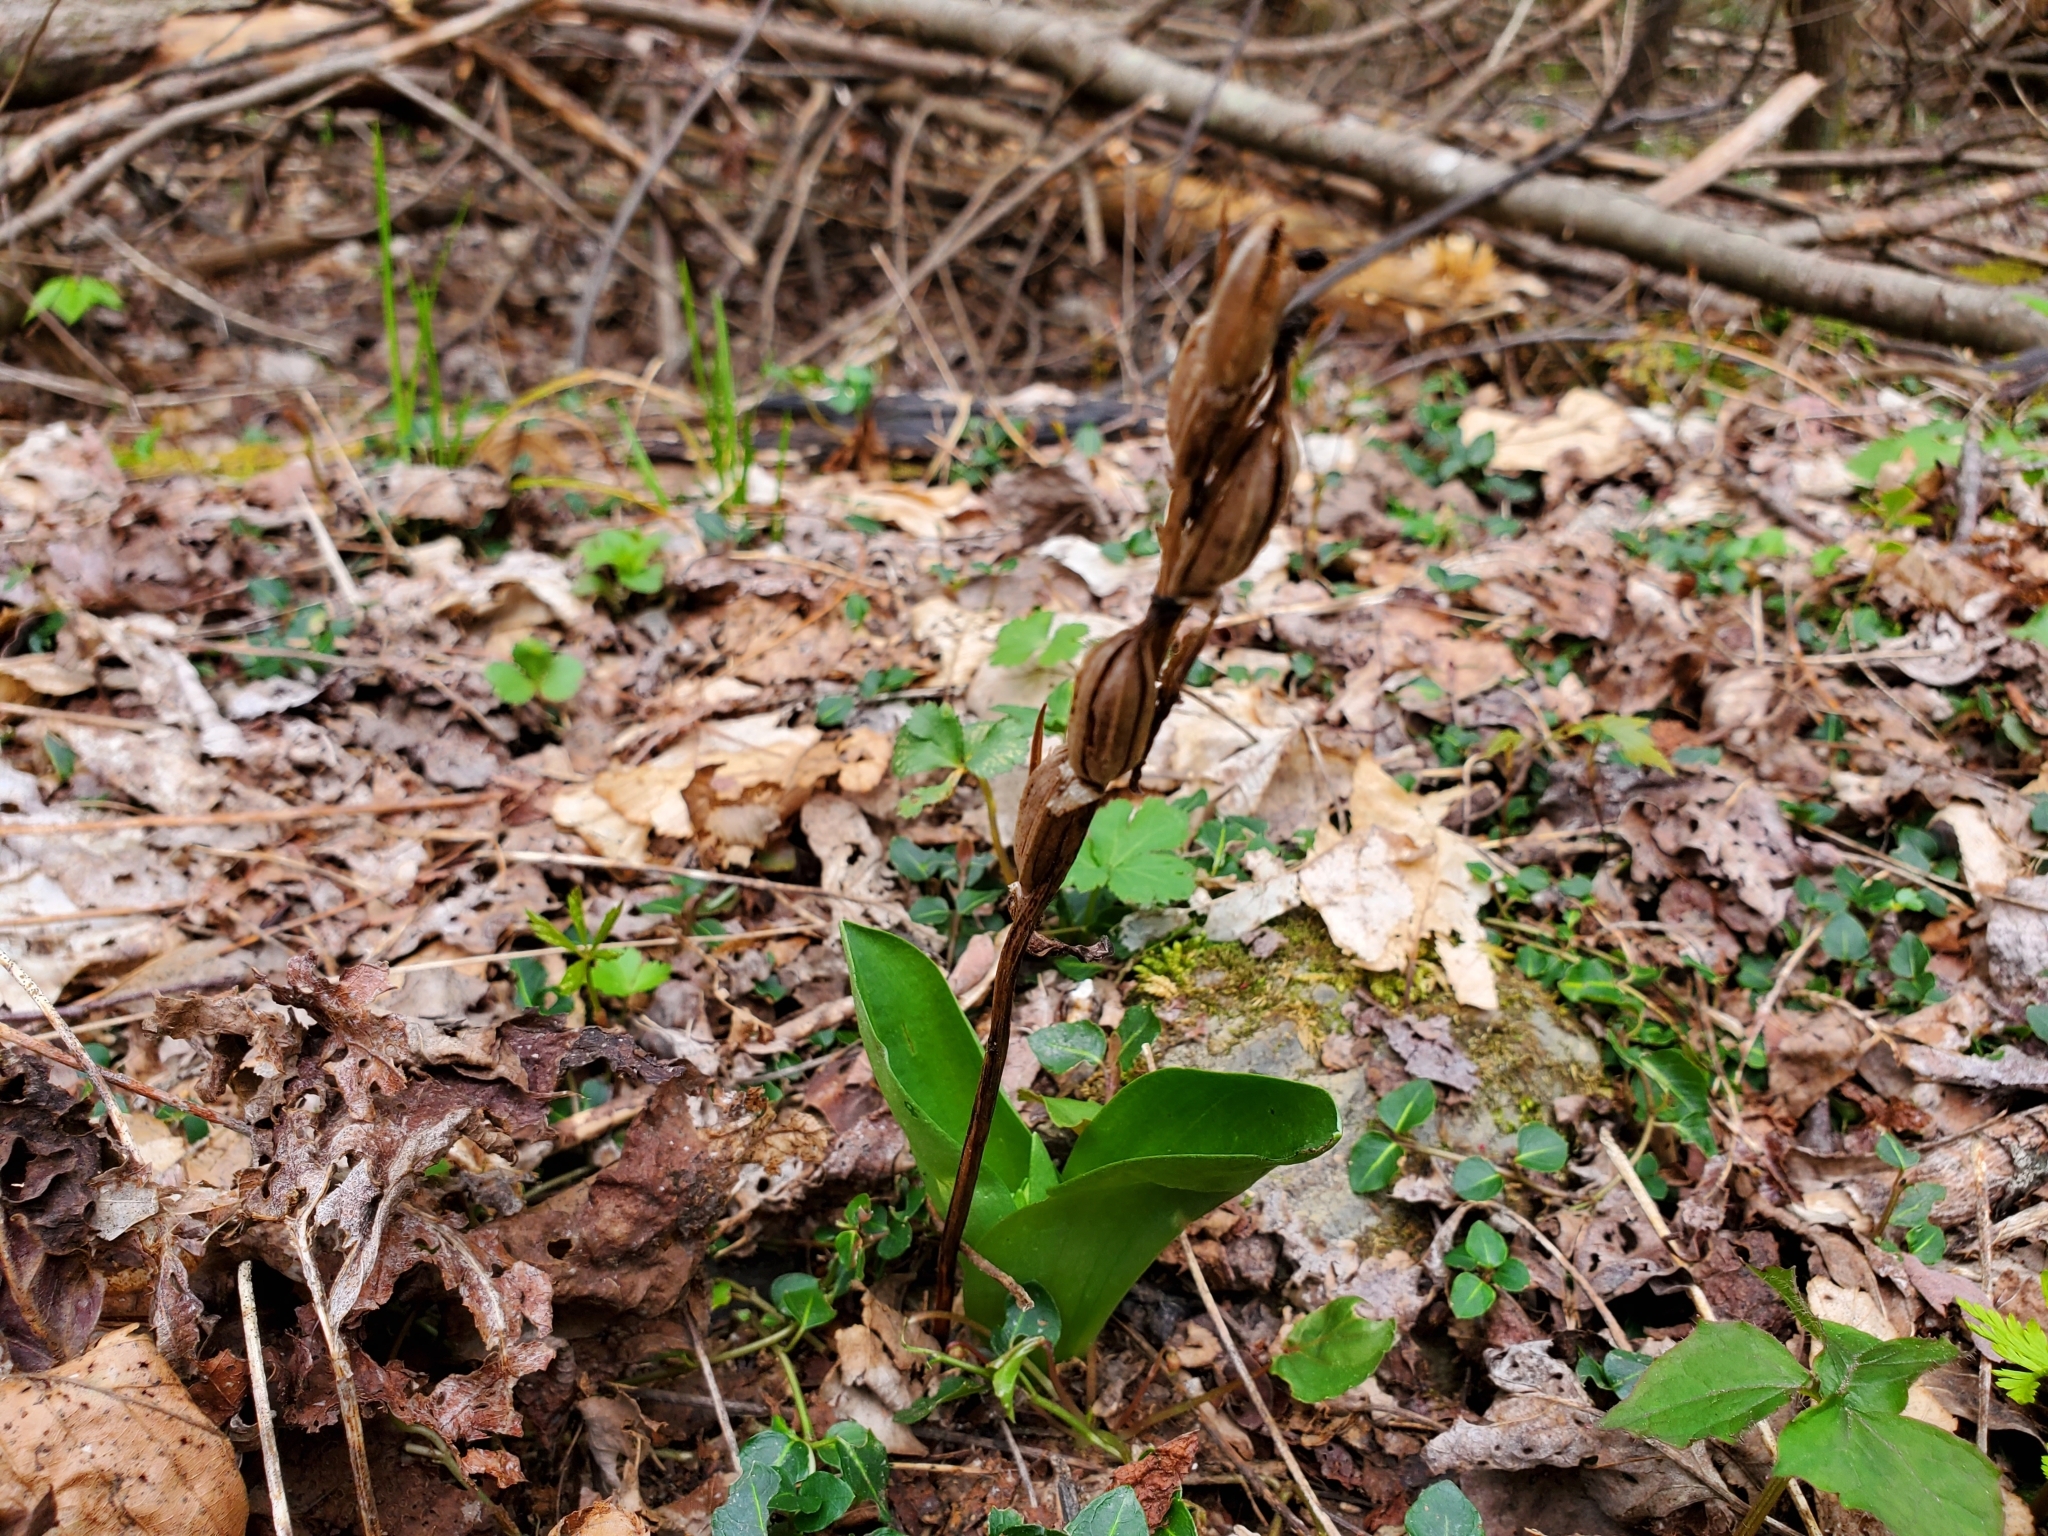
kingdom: Plantae
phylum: Tracheophyta
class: Liliopsida
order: Asparagales
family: Orchidaceae
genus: Galearis
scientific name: Galearis spectabilis
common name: Purple-hooded orchis
